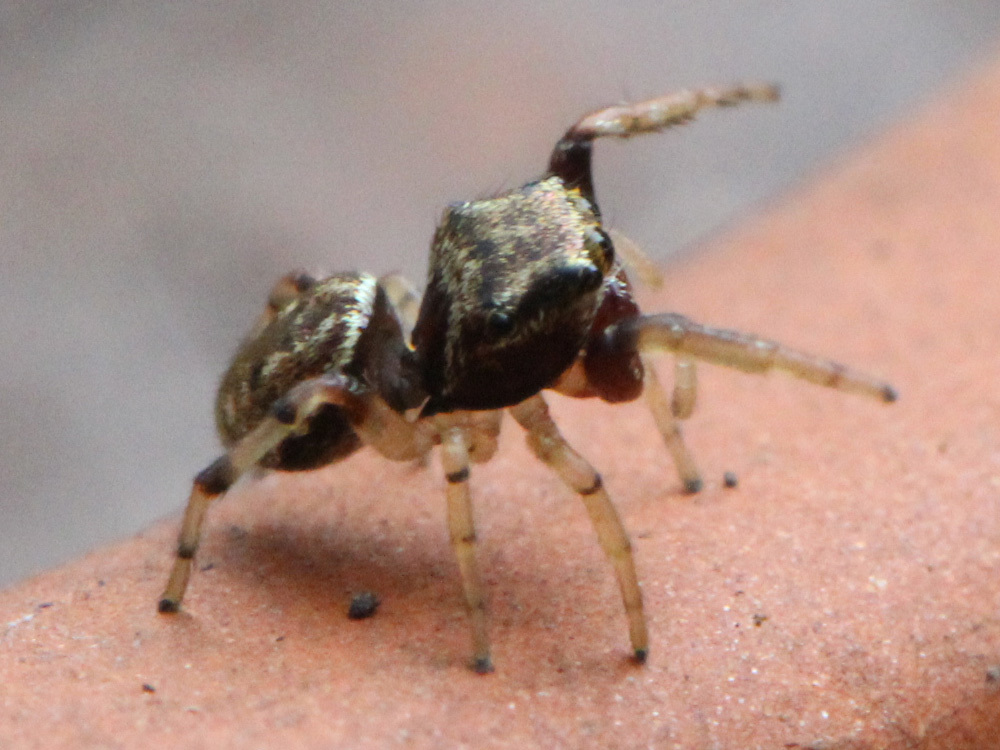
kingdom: Animalia
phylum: Arthropoda
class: Arachnida
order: Araneae
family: Salticidae
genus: Zygoballus
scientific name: Zygoballus rufipes
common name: Jumping spiders
